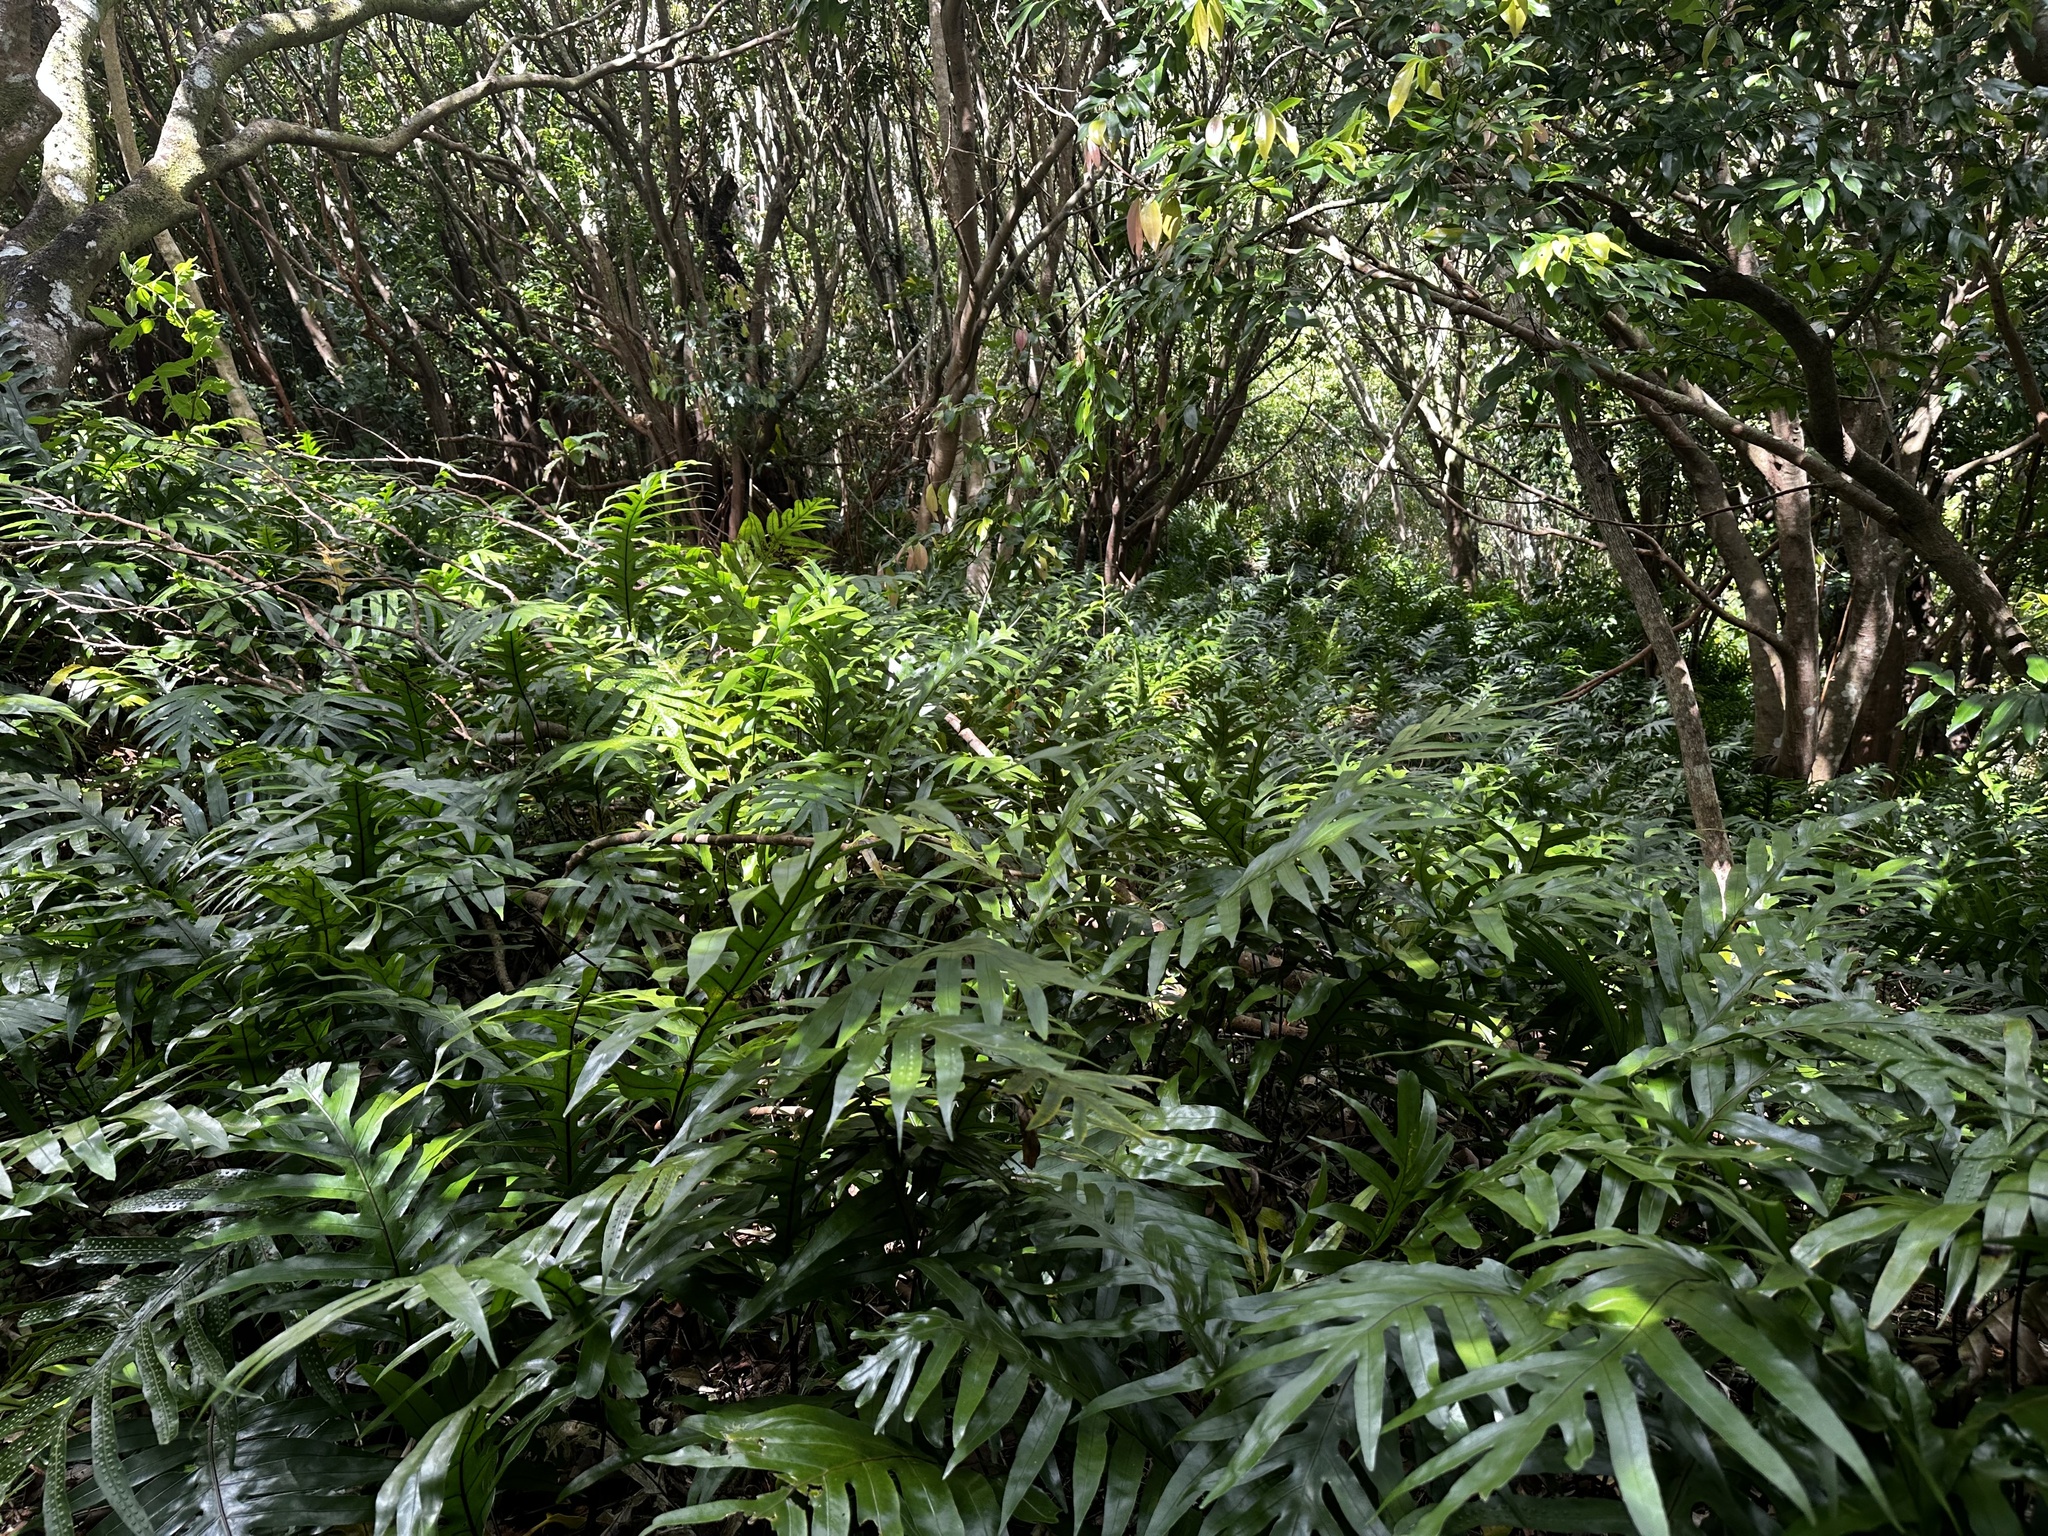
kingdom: Plantae
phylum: Tracheophyta
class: Polypodiopsida
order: Polypodiales
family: Polypodiaceae
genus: Microsorum
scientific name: Microsorum grossum
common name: Musk fern
